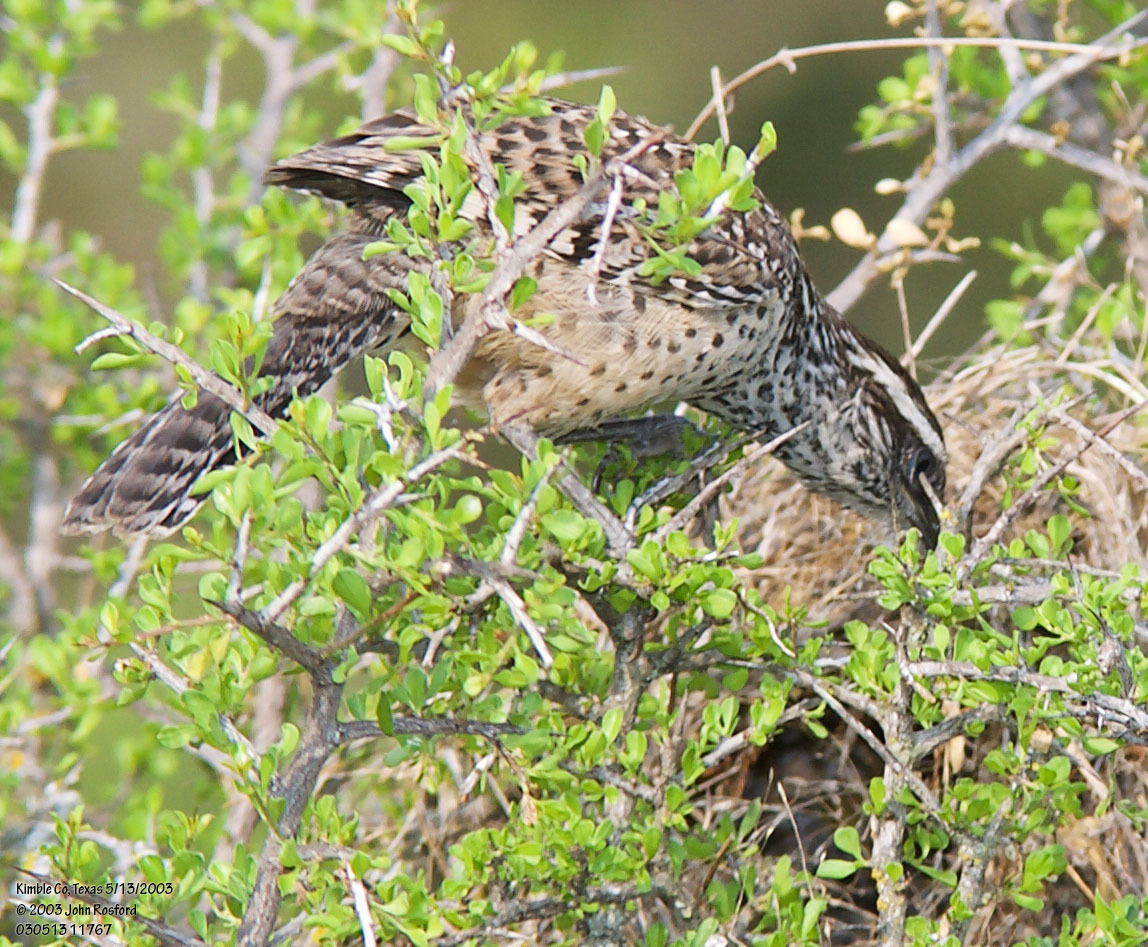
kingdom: Animalia
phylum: Chordata
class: Aves
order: Passeriformes
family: Troglodytidae
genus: Campylorhynchus
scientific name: Campylorhynchus brunneicapillus
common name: Cactus wren
